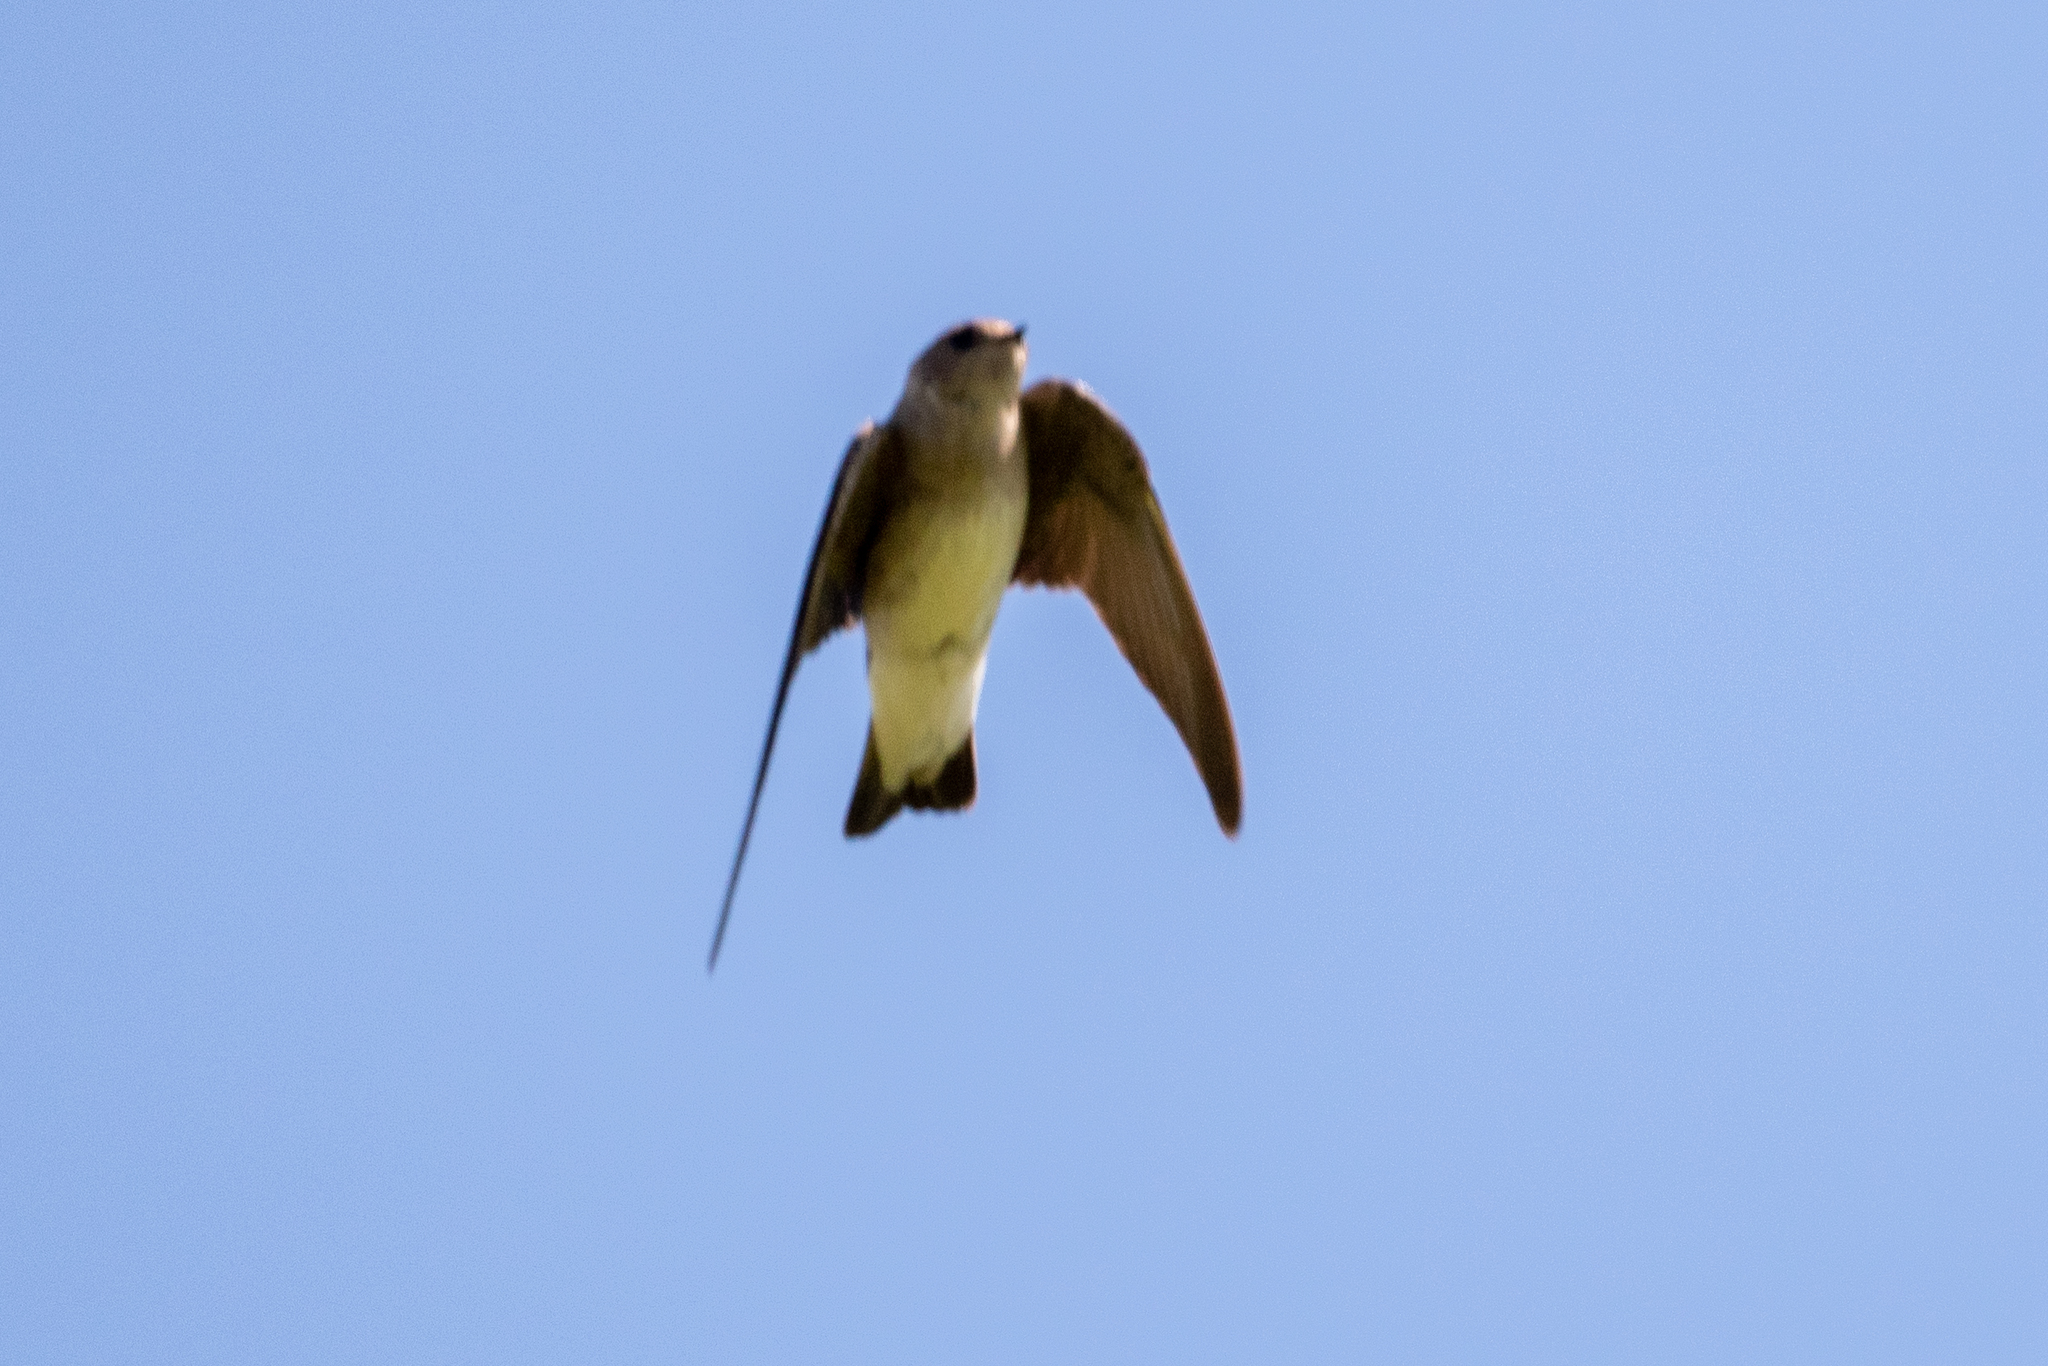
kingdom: Animalia
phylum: Chordata
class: Aves
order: Passeriformes
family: Hirundinidae
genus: Stelgidopteryx
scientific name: Stelgidopteryx serripennis
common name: Northern rough-winged swallow
